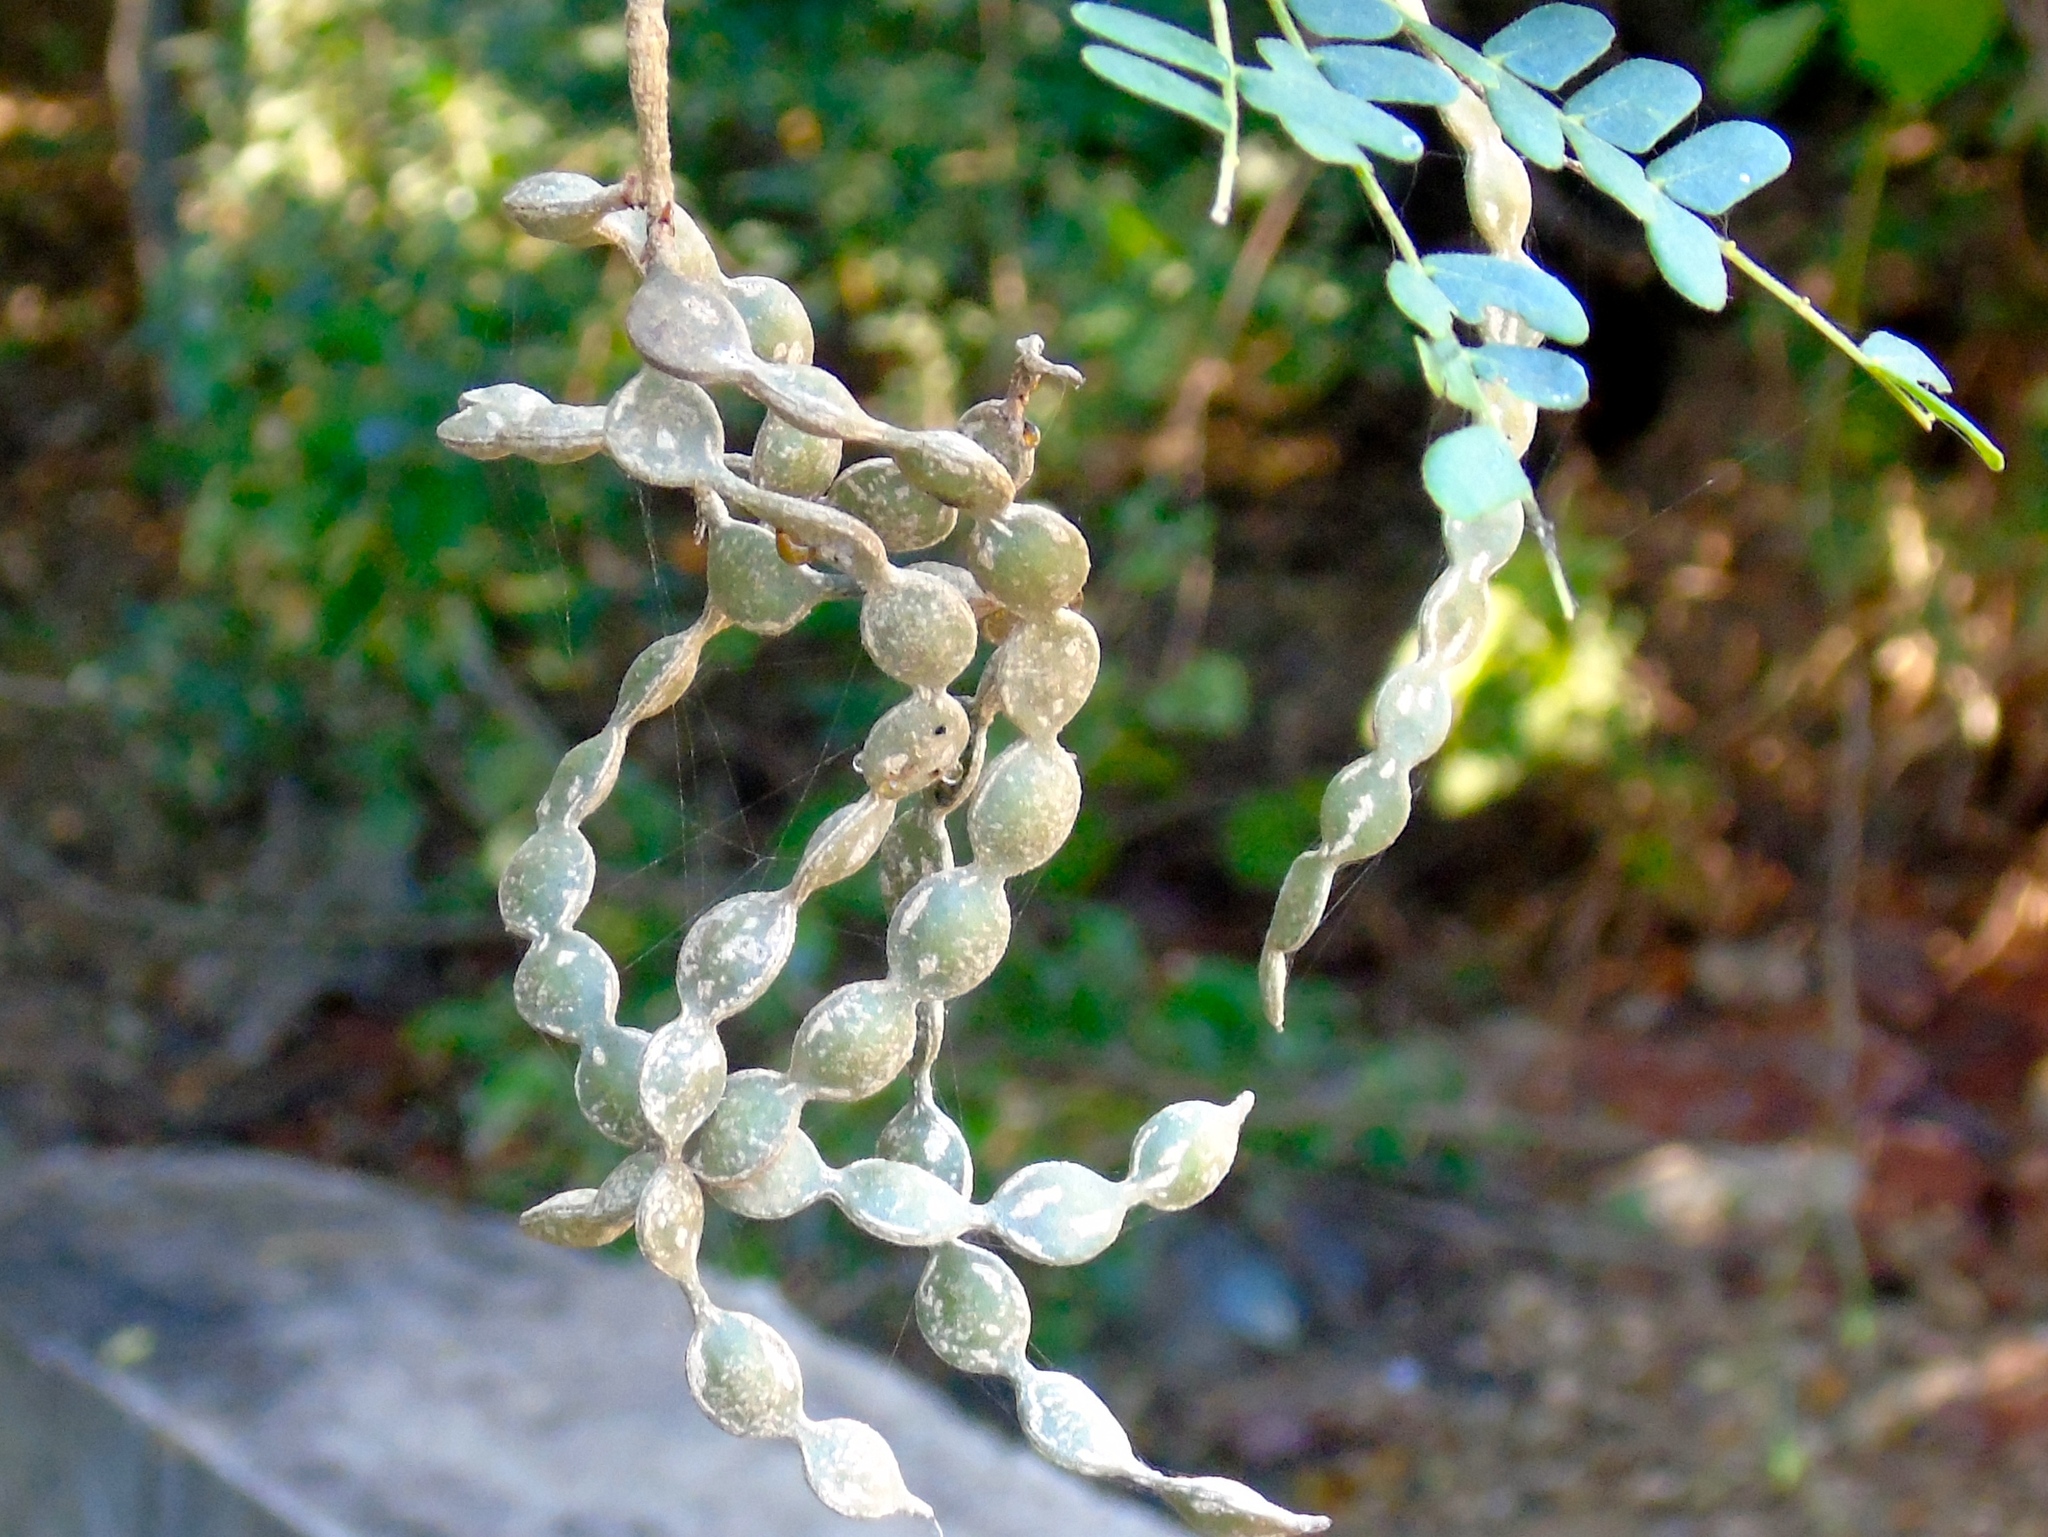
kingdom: Plantae
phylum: Tracheophyta
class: Magnoliopsida
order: Fabales
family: Fabaceae
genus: Pityrocarpa
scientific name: Pityrocarpa obliqua
